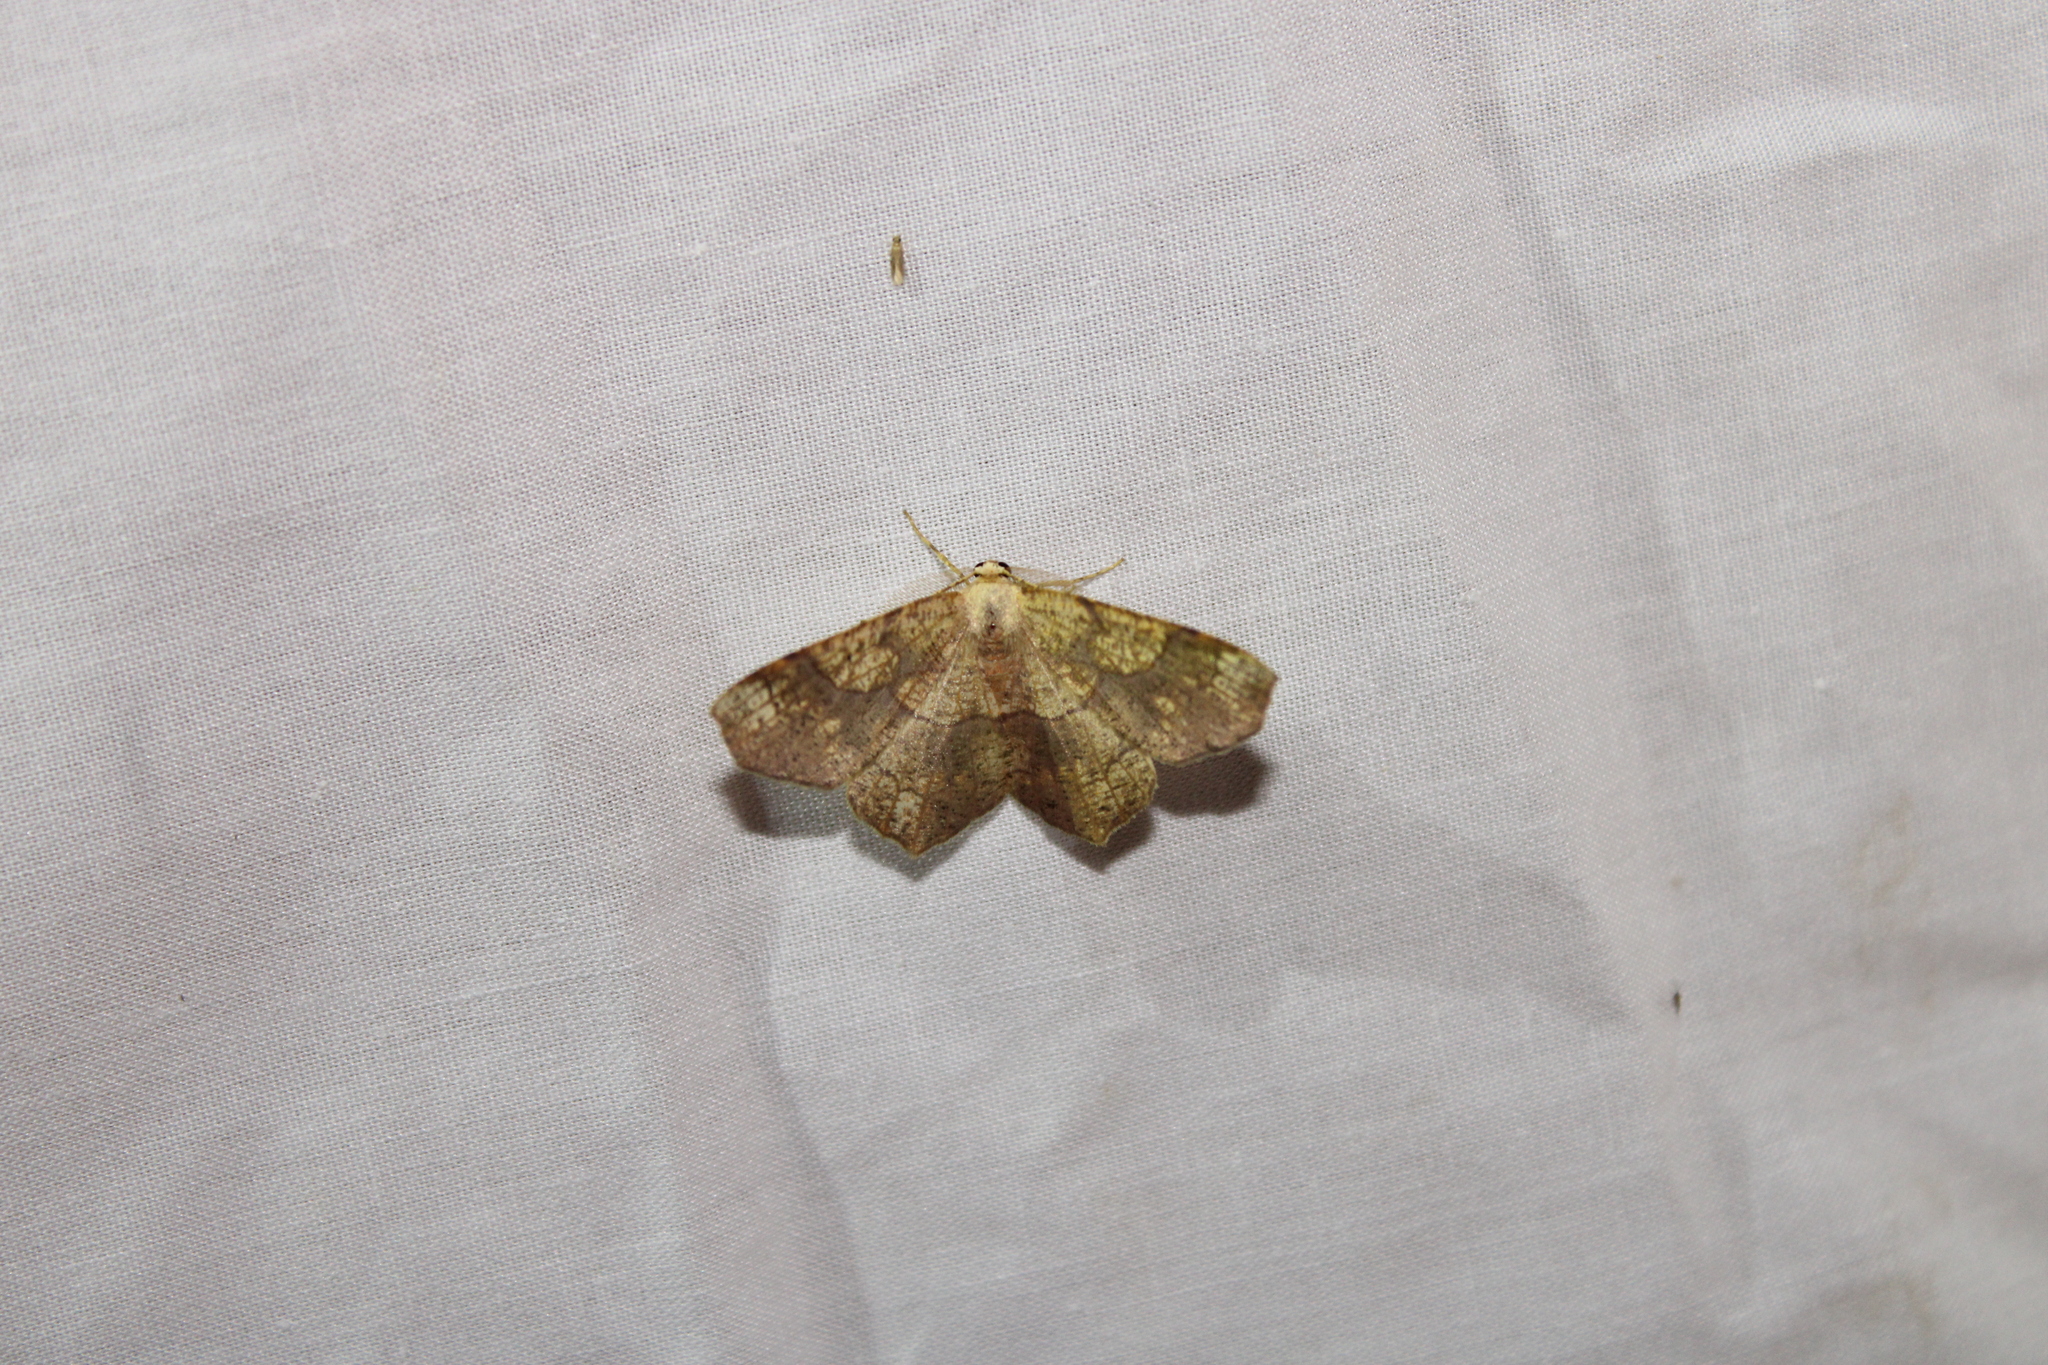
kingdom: Animalia
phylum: Arthropoda
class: Insecta
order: Lepidoptera
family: Geometridae
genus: Besma
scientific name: Besma quercivoraria
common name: Oak besma
